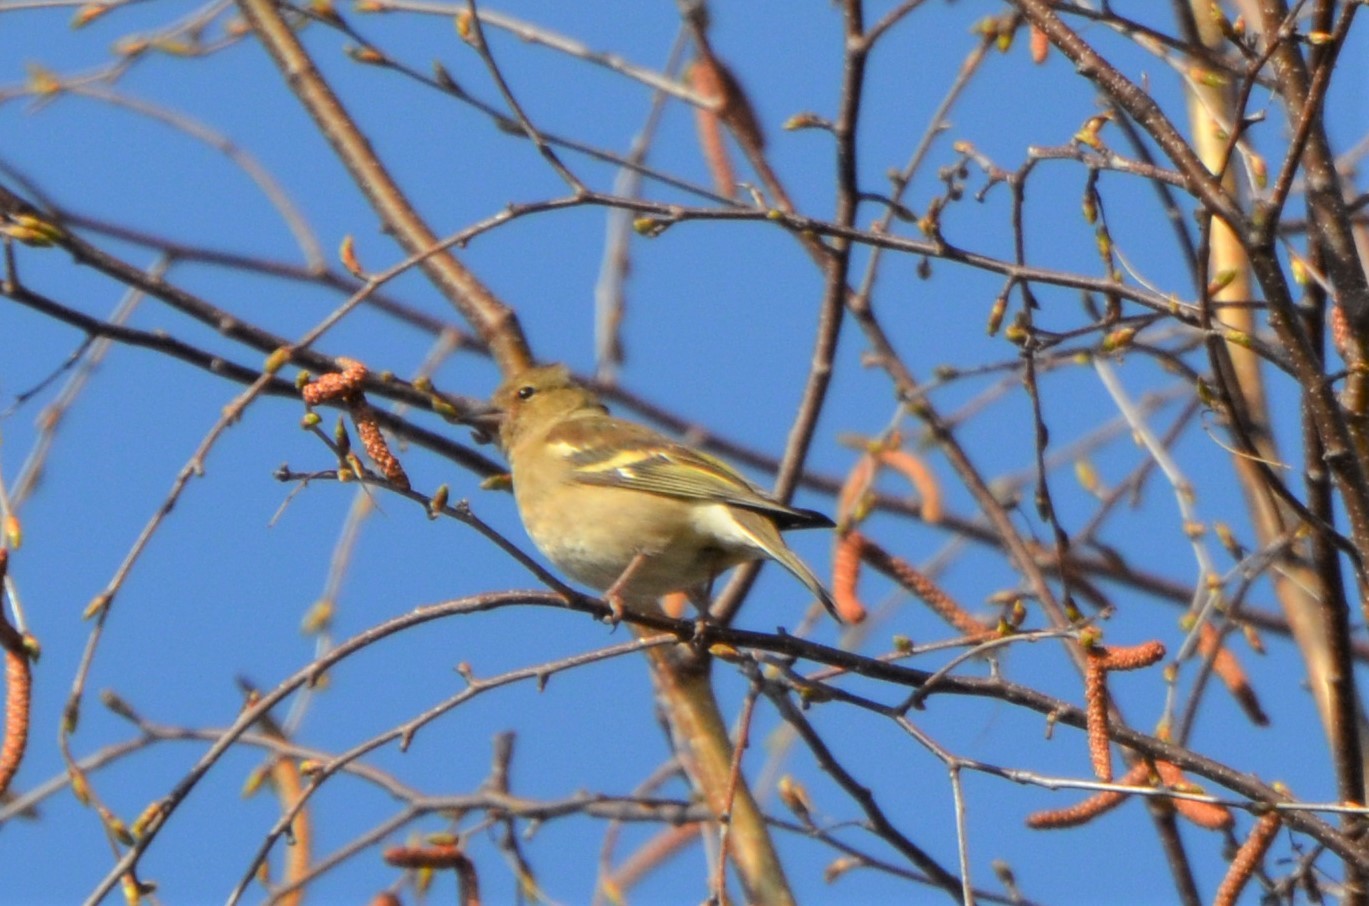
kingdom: Animalia
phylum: Chordata
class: Aves
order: Passeriformes
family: Fringillidae
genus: Fringilla
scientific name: Fringilla coelebs
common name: Common chaffinch
